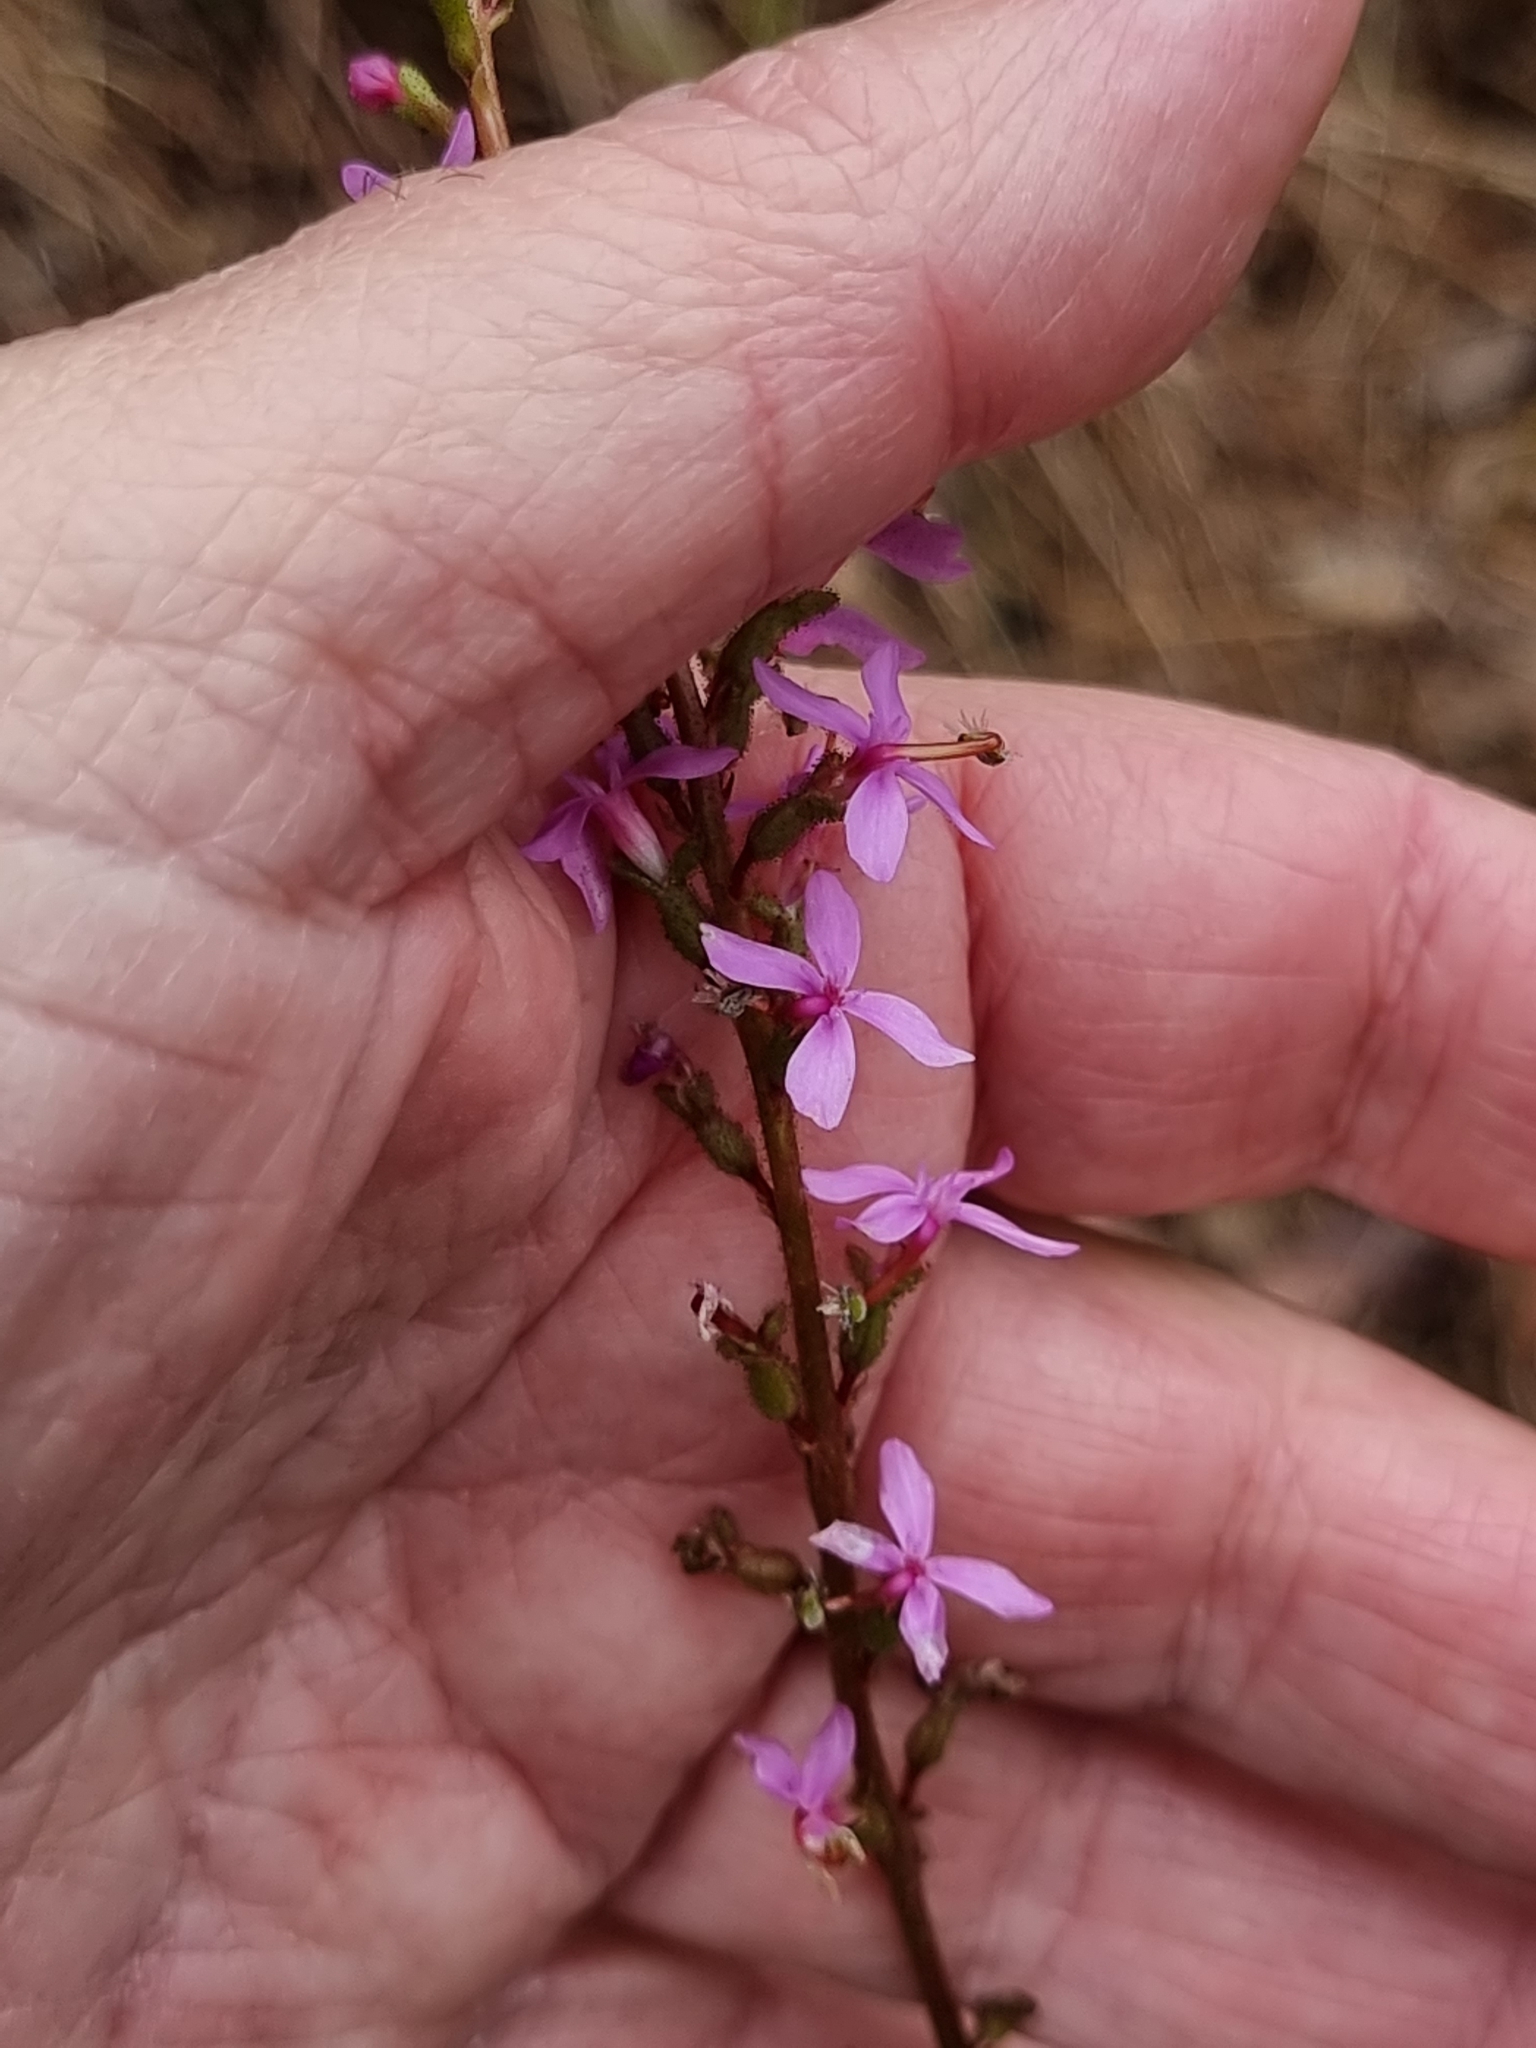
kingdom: Plantae
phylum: Tracheophyta
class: Magnoliopsida
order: Asterales
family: Stylidiaceae
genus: Stylidium
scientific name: Stylidium graminifolium
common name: Grass triggerplant
